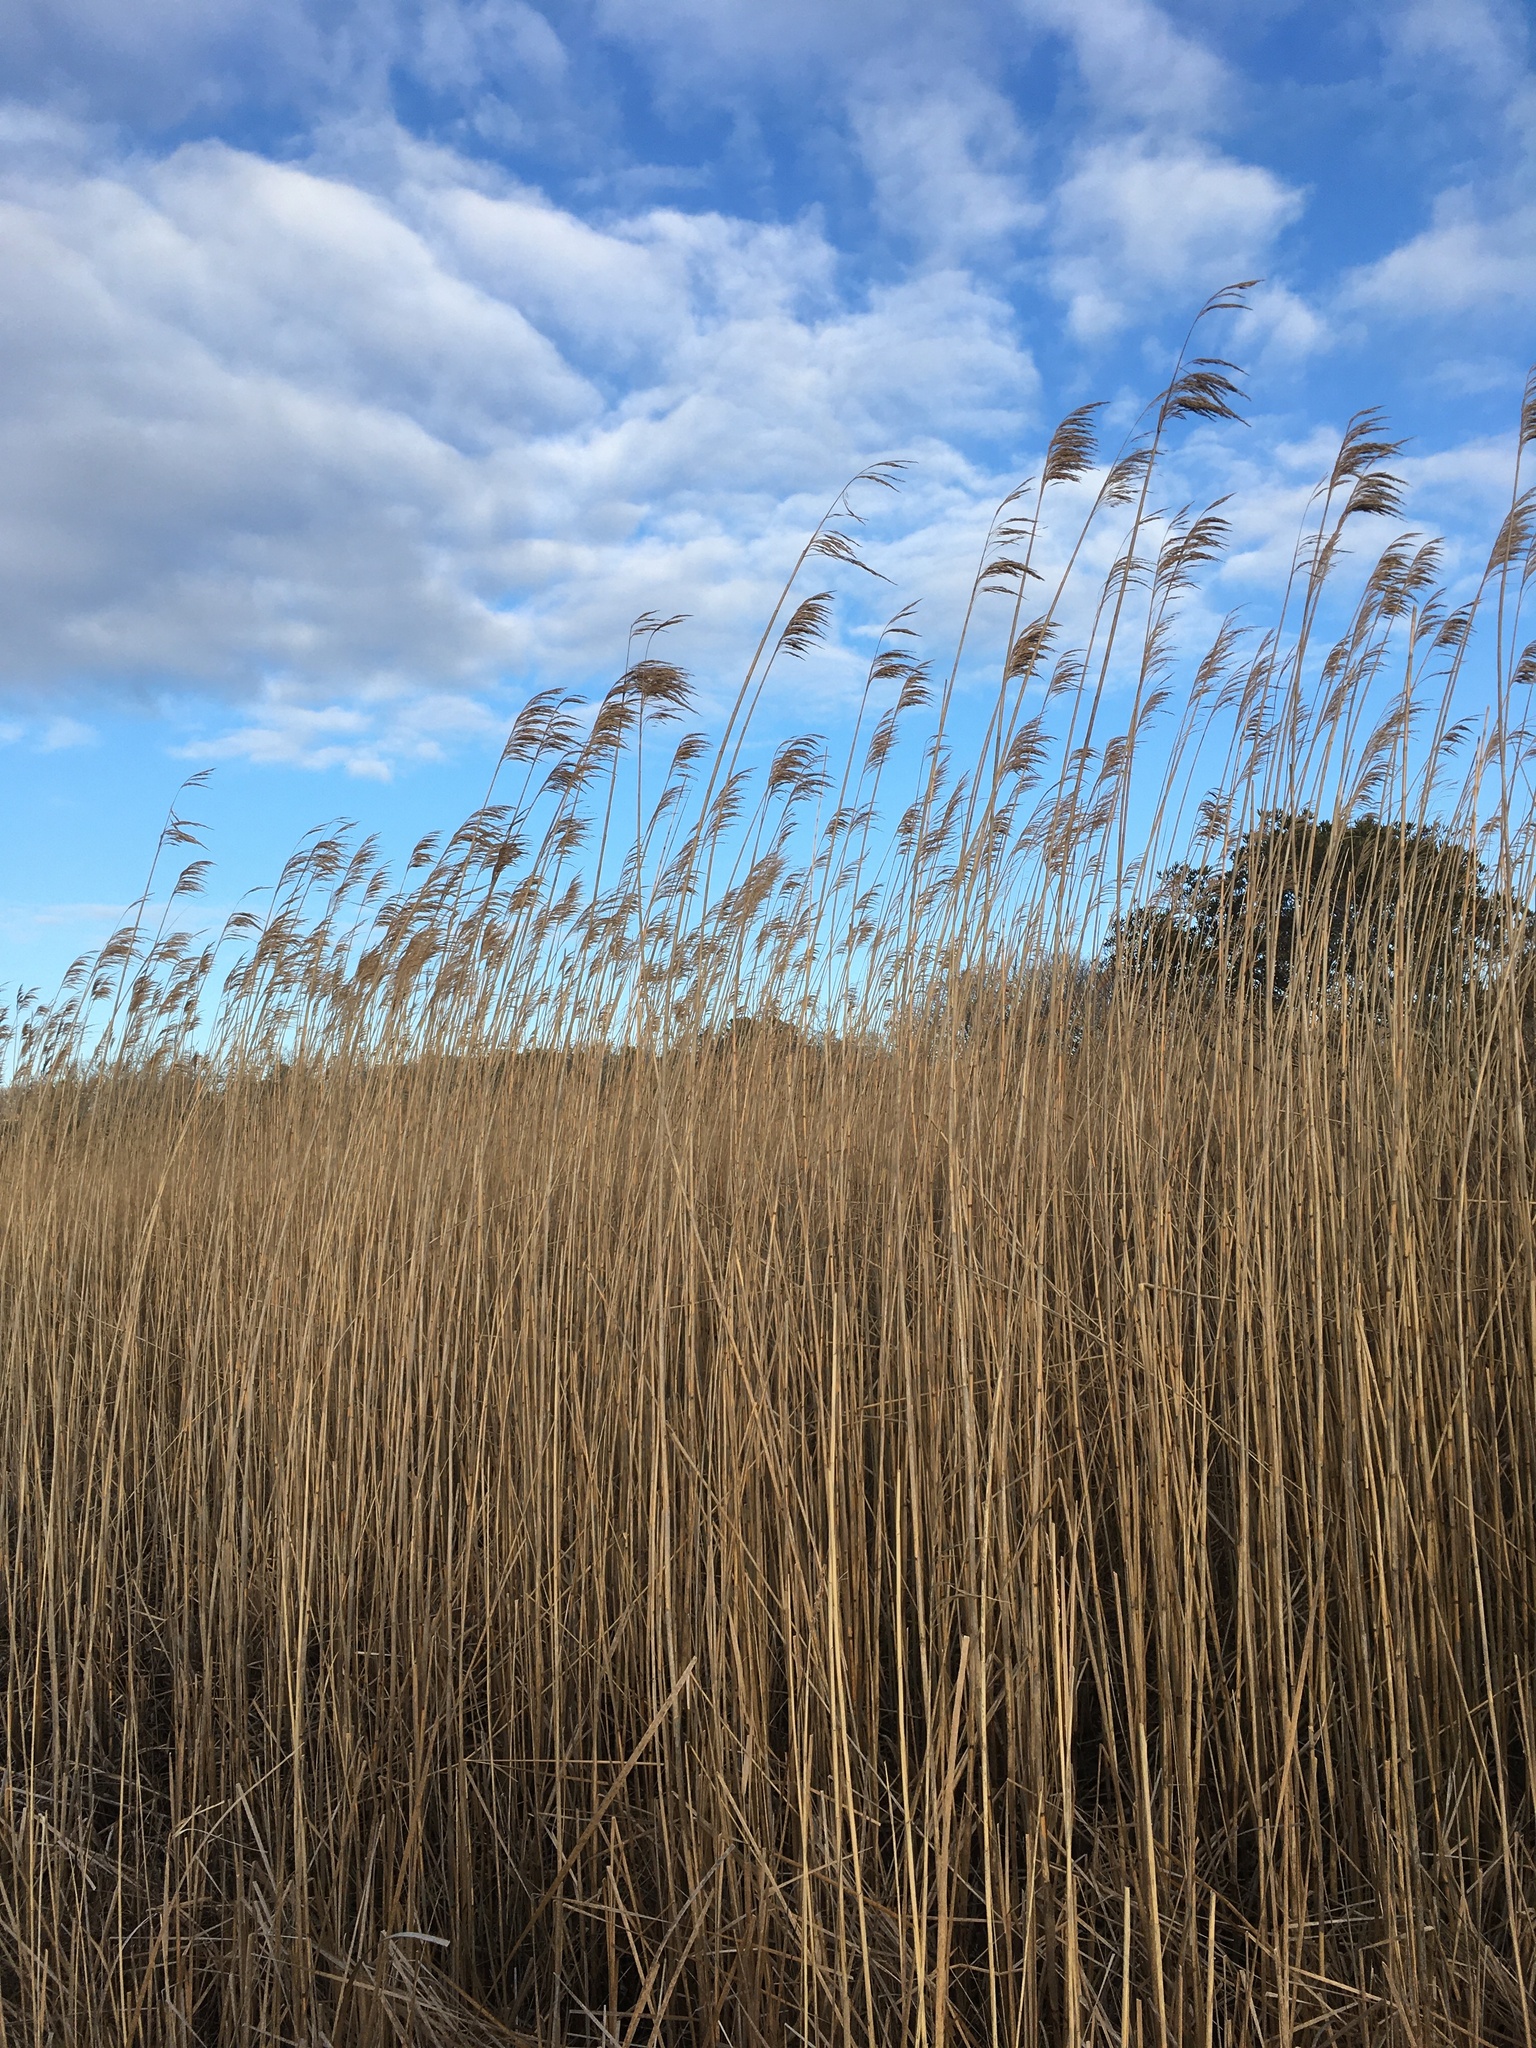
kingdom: Plantae
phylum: Tracheophyta
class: Liliopsida
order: Poales
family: Poaceae
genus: Phragmites
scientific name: Phragmites australis
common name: Common reed
